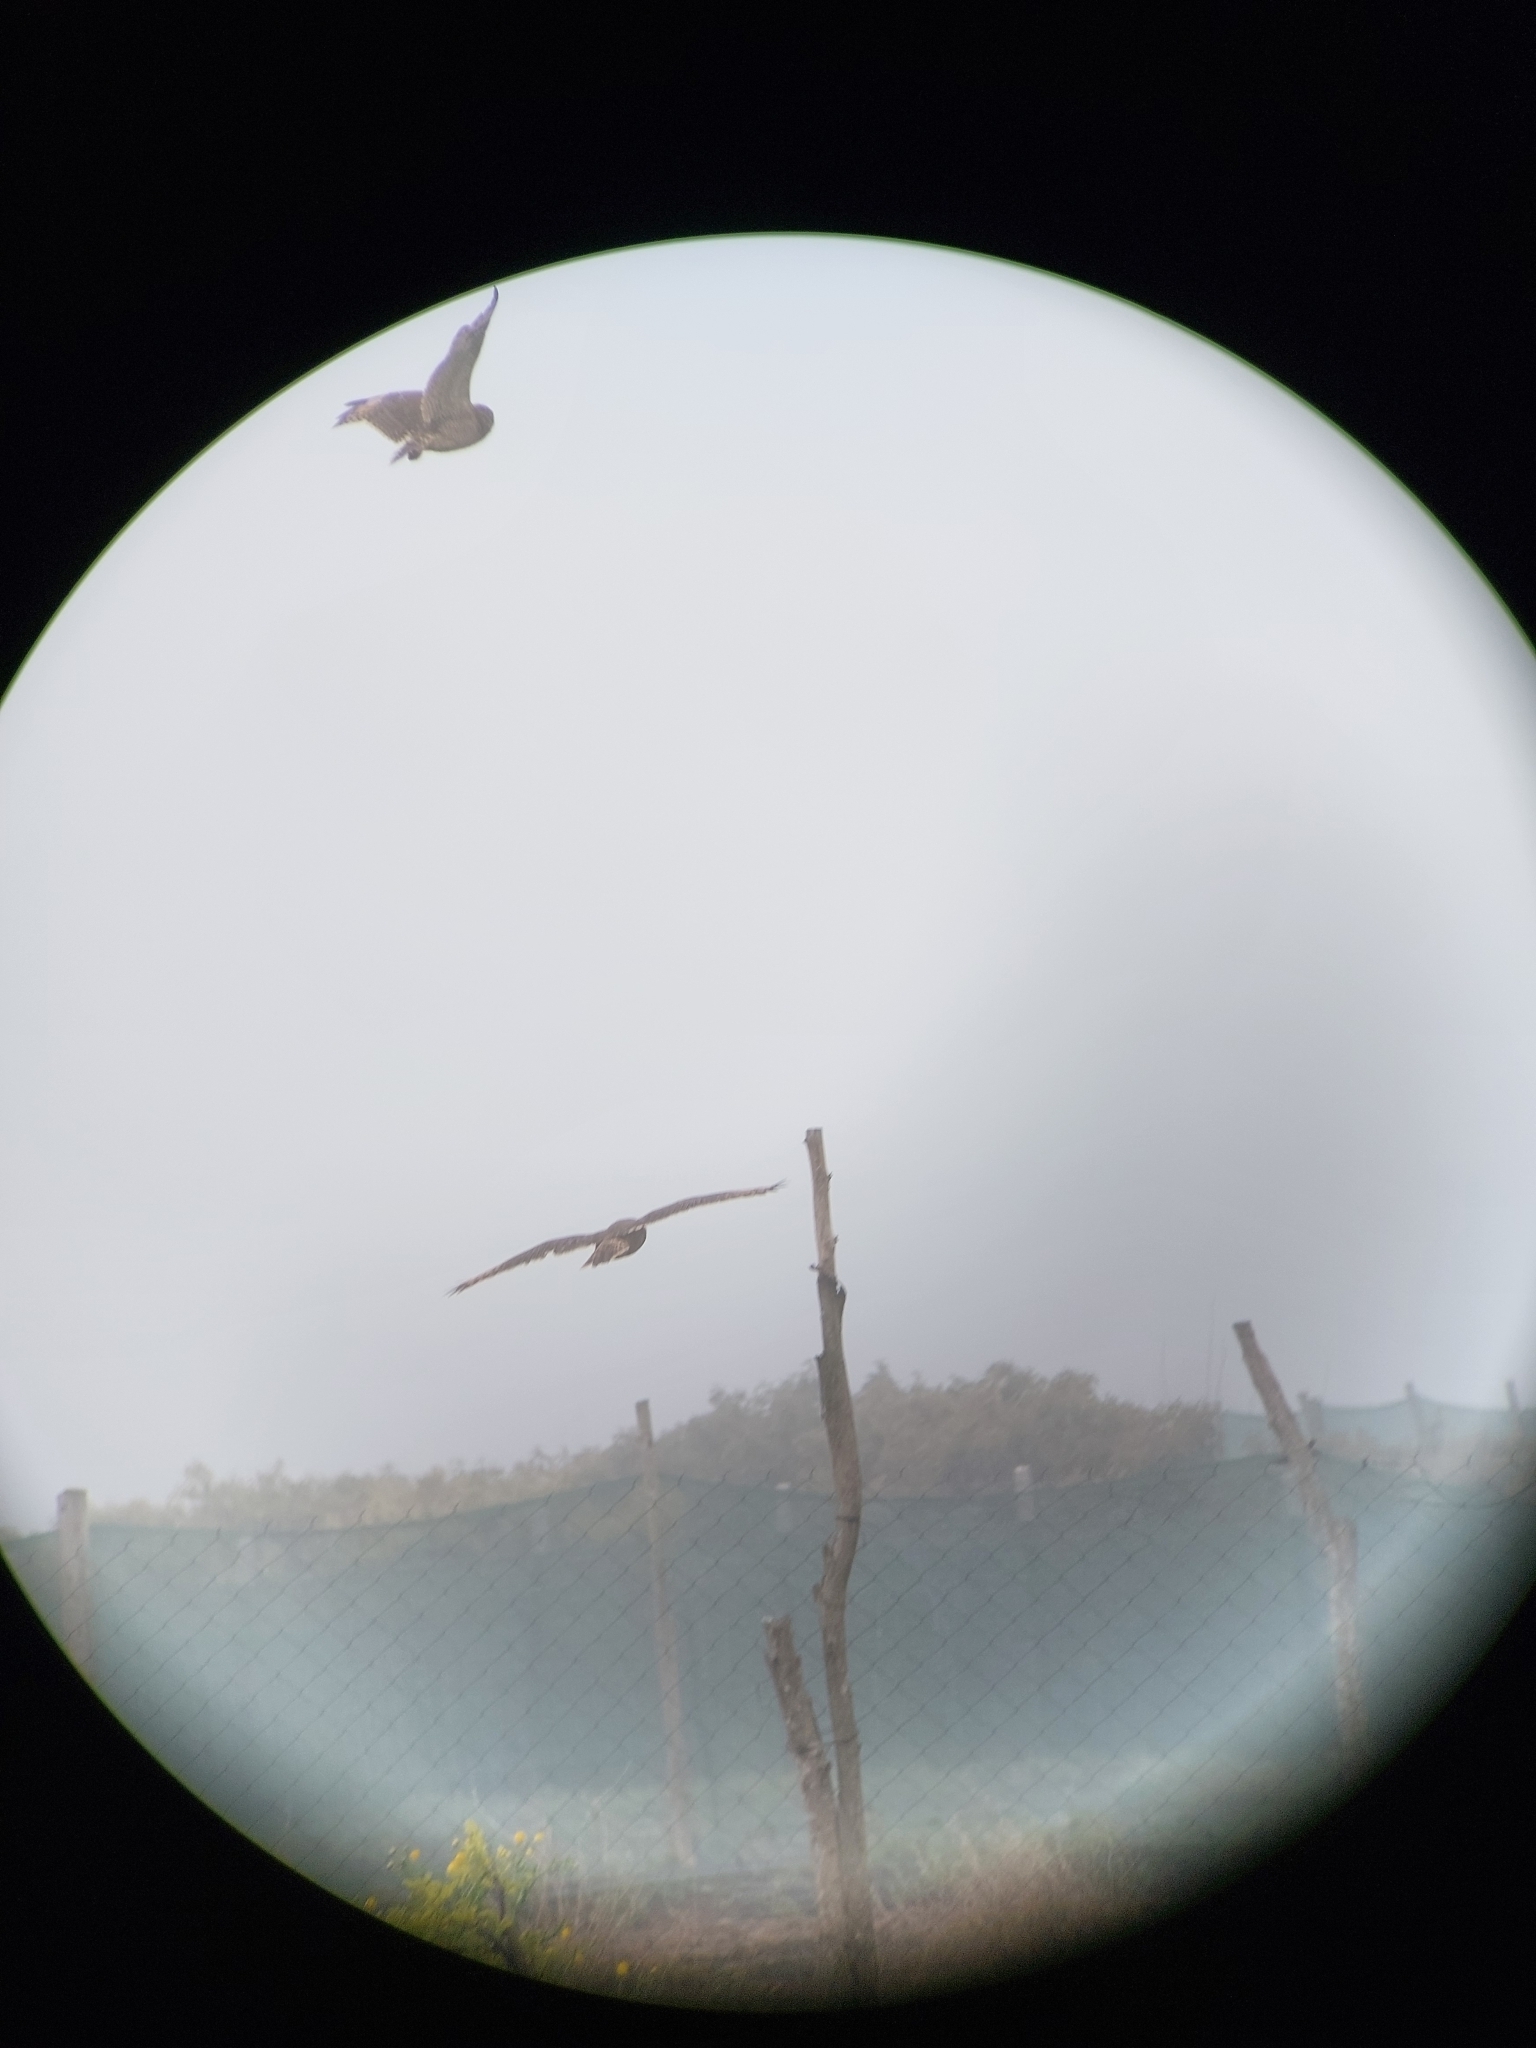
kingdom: Animalia
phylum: Chordata
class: Aves
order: Strigiformes
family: Strigidae
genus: Asio
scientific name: Asio capensis
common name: Marsh owl
